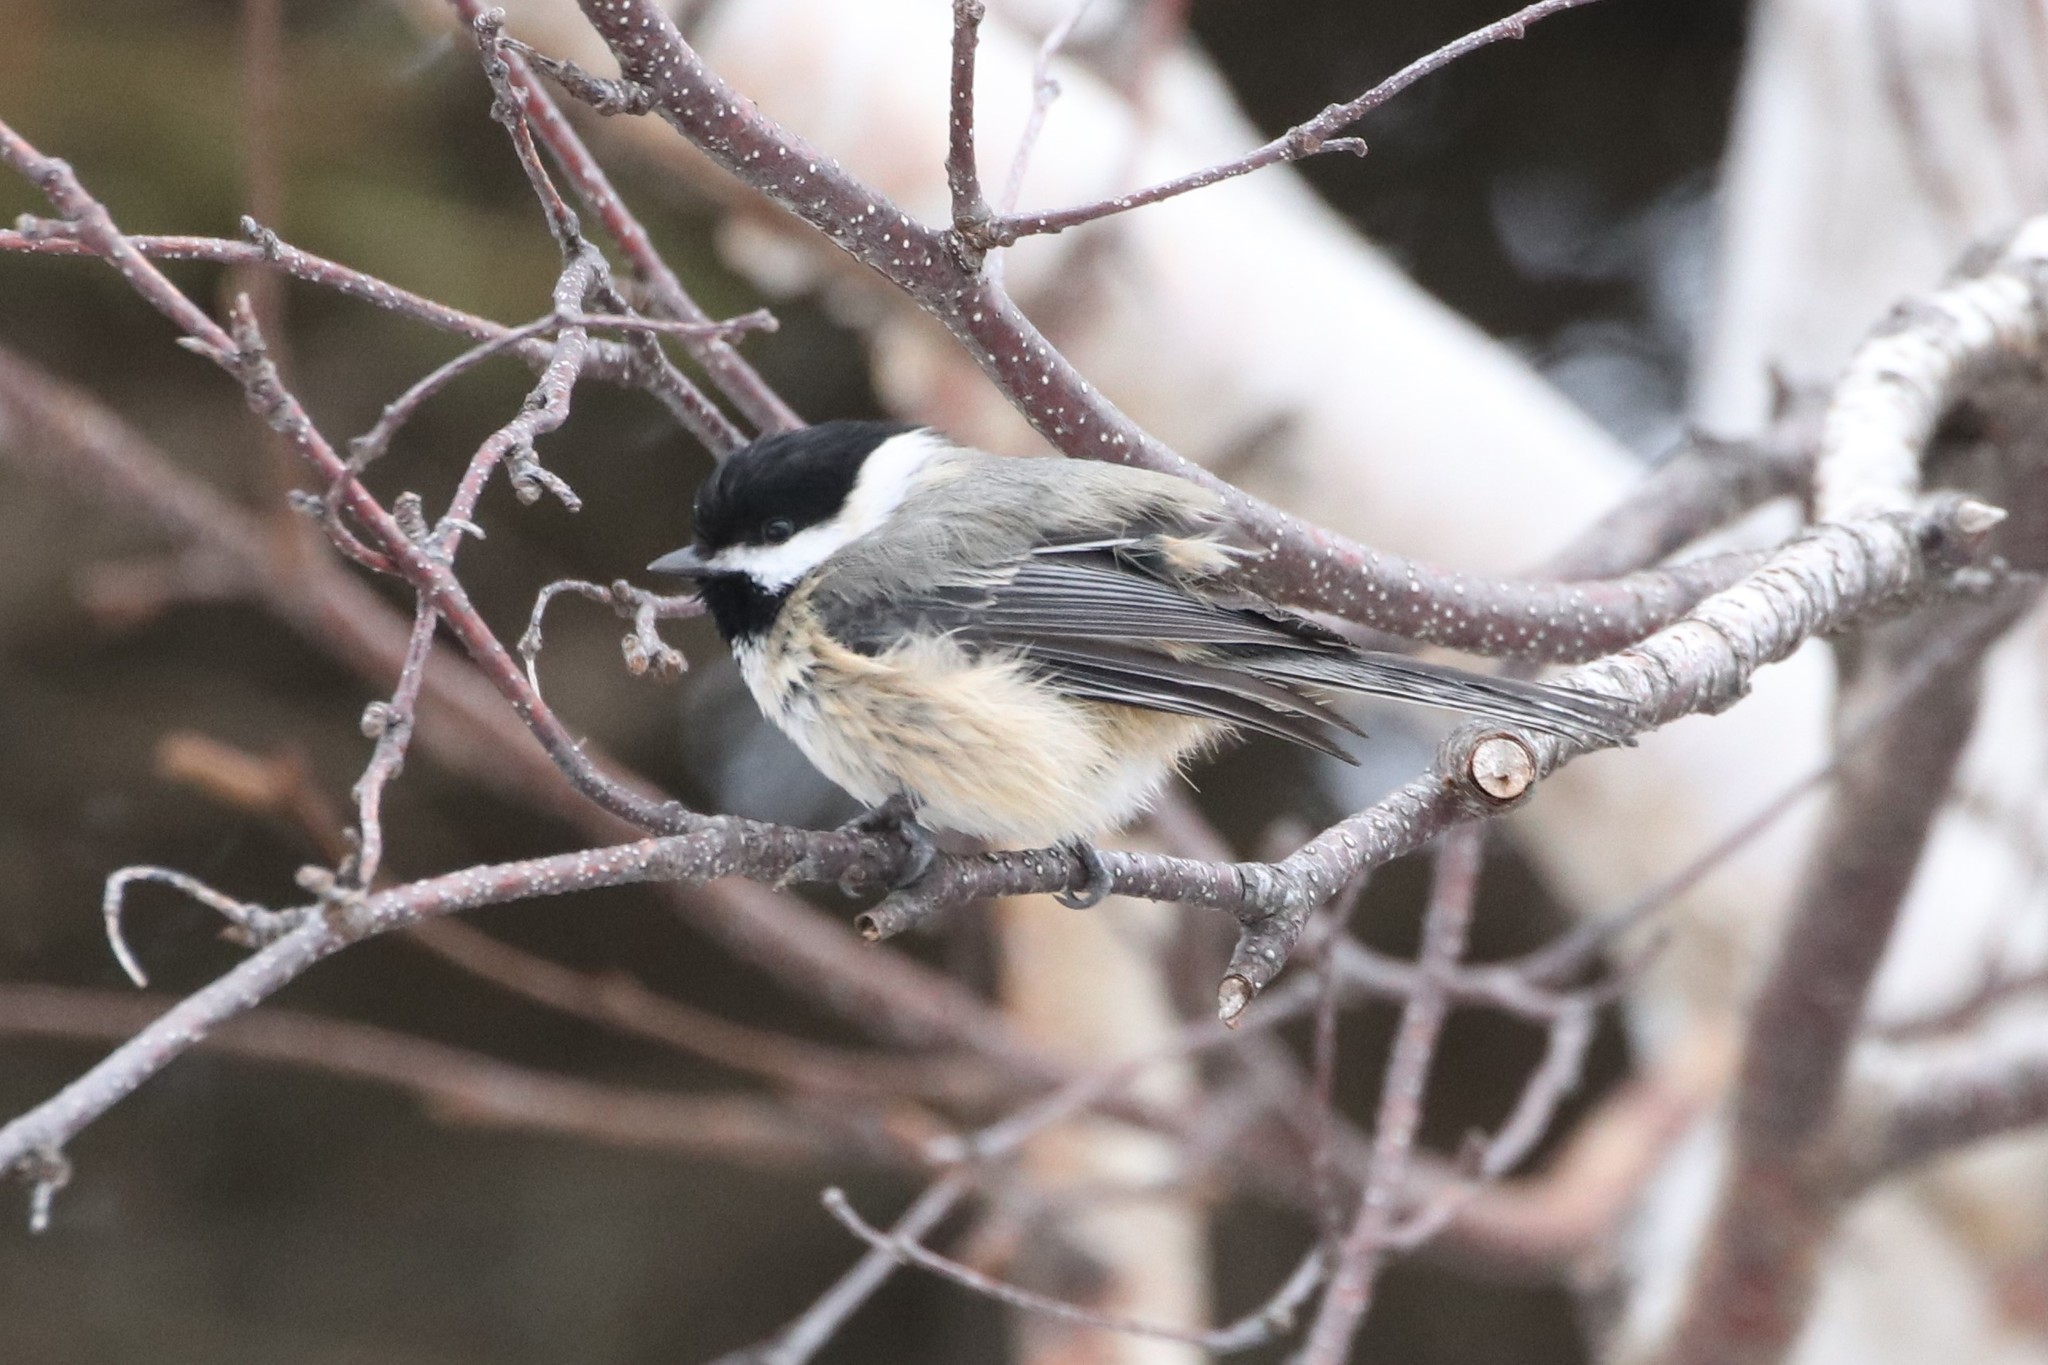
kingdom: Animalia
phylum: Chordata
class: Aves
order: Passeriformes
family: Paridae
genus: Poecile
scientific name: Poecile atricapillus
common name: Black-capped chickadee
